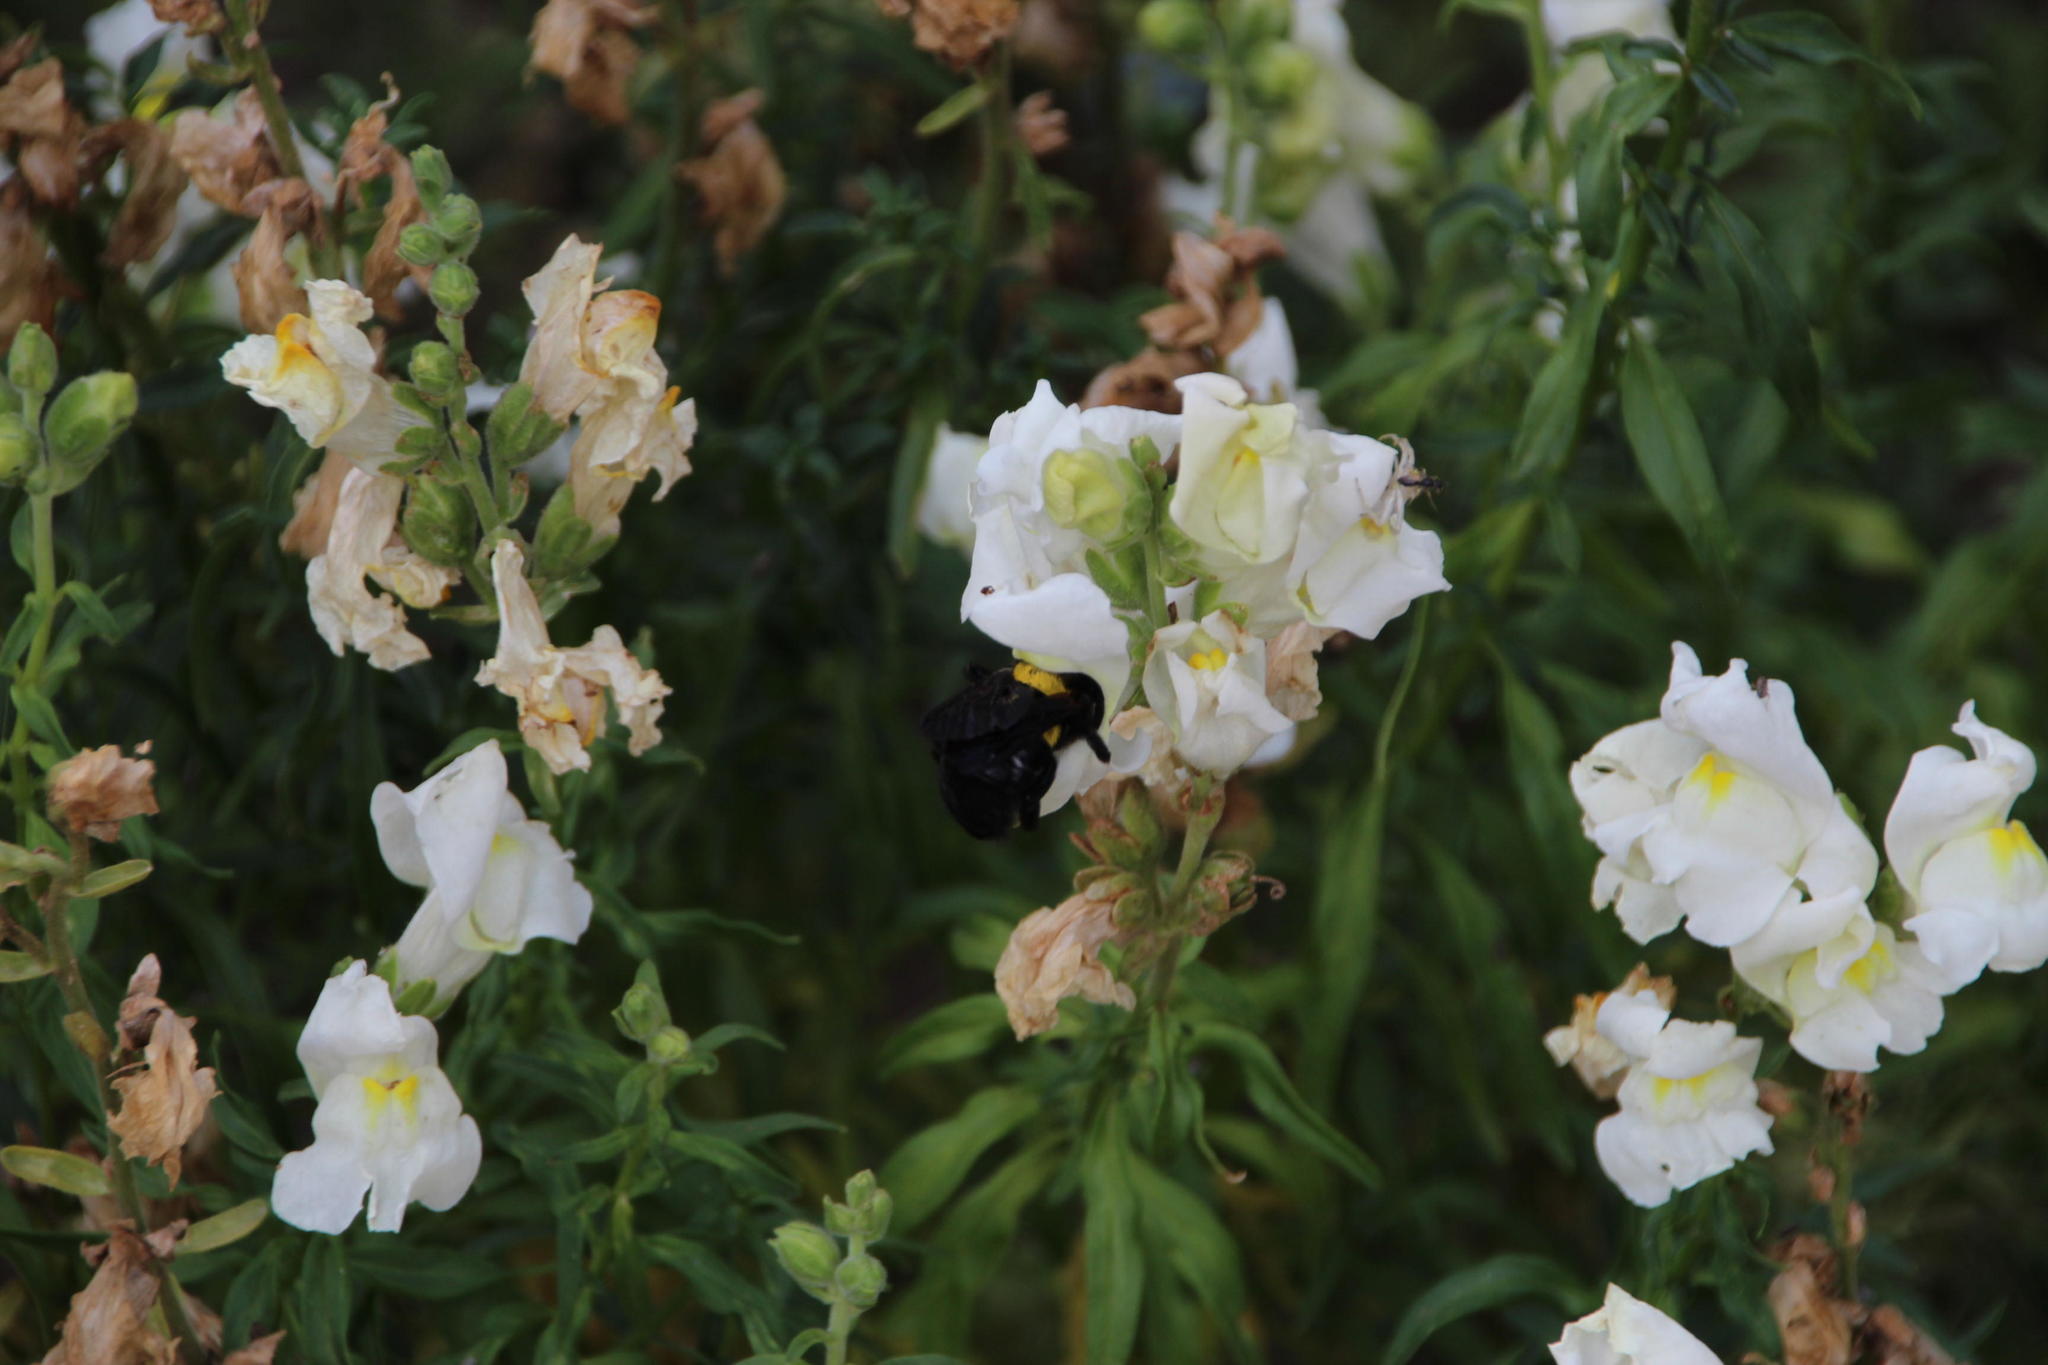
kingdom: Plantae
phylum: Tracheophyta
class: Magnoliopsida
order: Lamiales
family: Plantaginaceae
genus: Antirrhinum
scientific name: Antirrhinum majus
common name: Snapdragon
